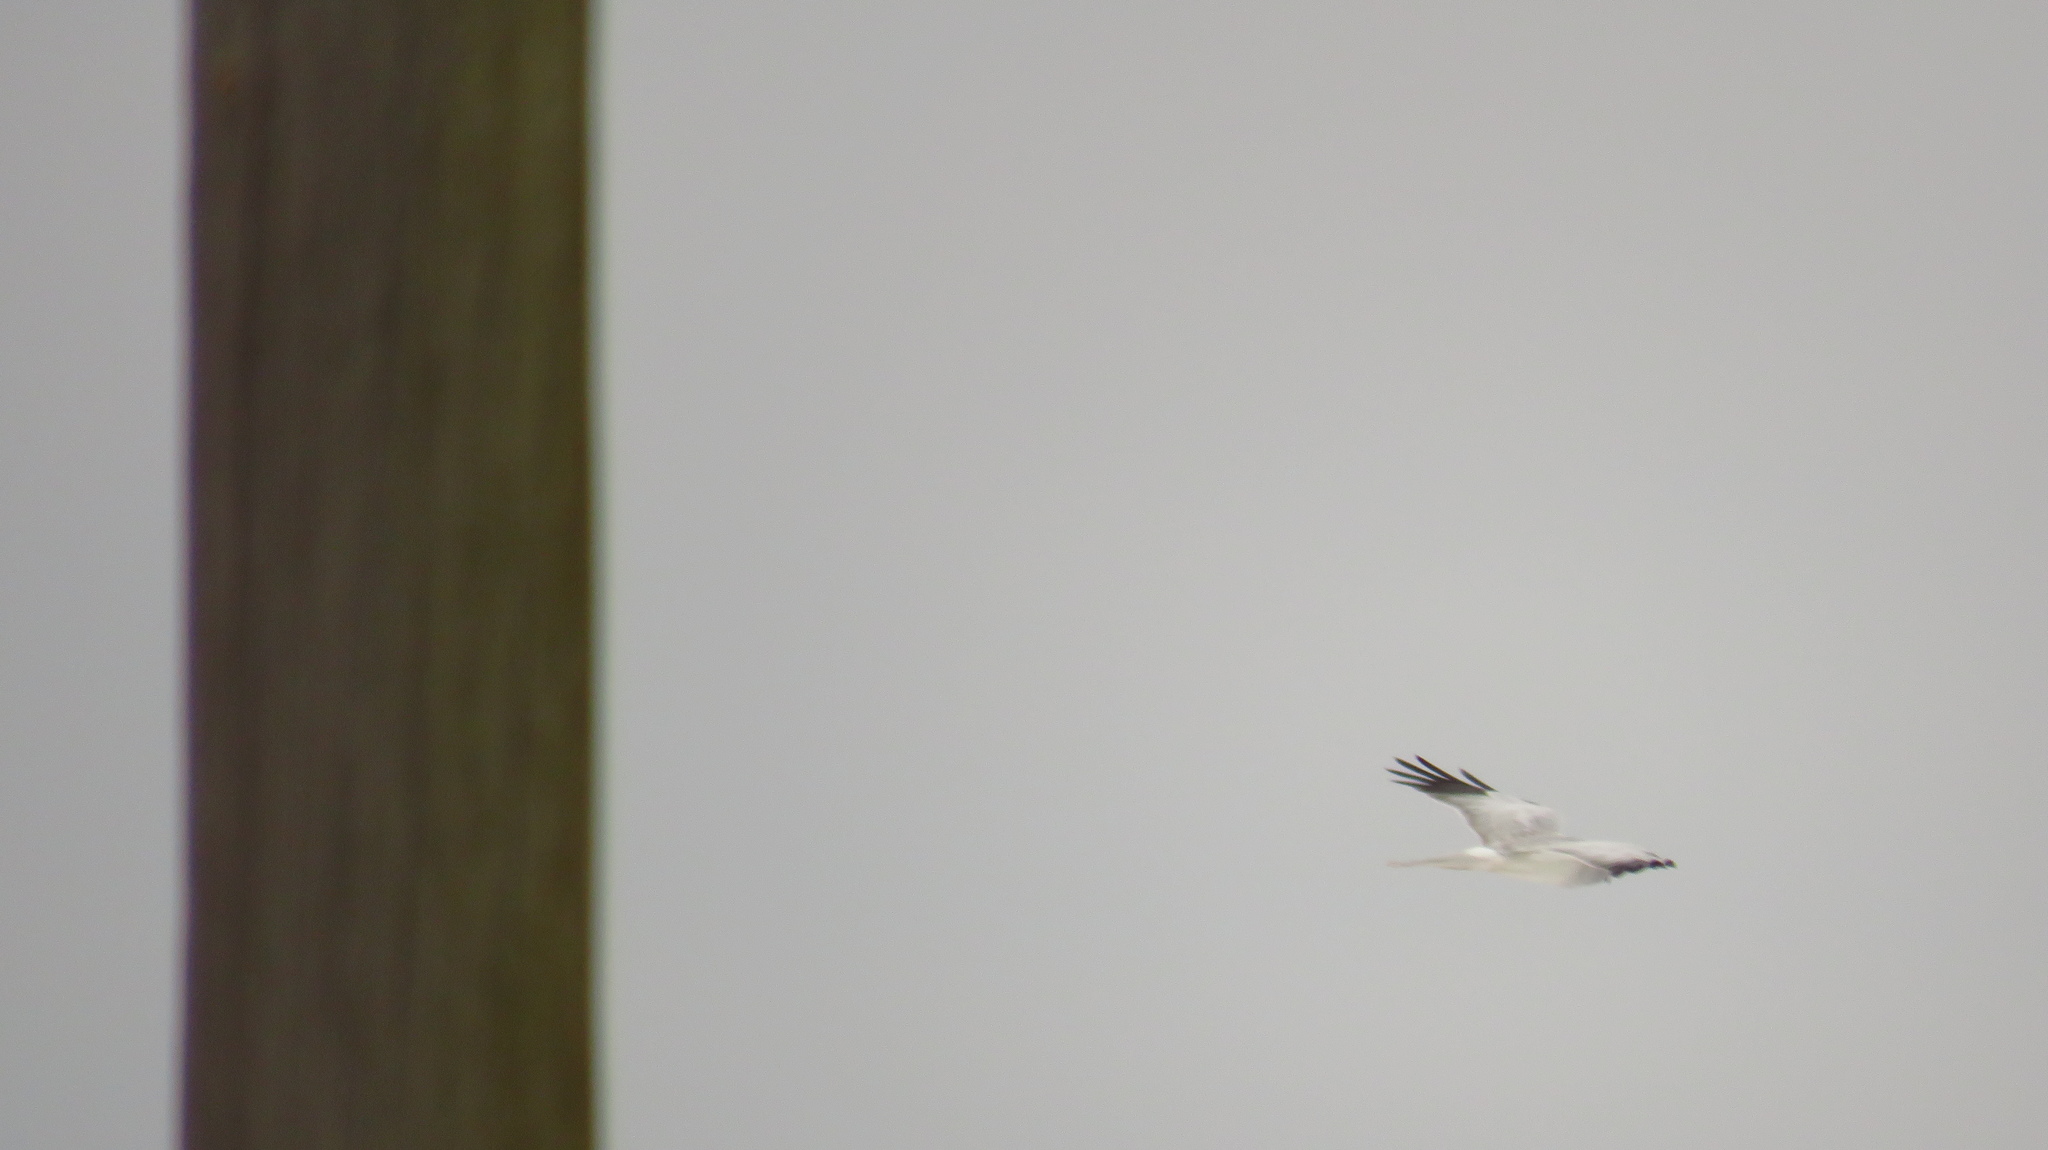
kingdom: Animalia
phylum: Chordata
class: Aves
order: Accipitriformes
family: Accipitridae
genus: Circus
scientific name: Circus cyaneus
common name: Hen harrier
